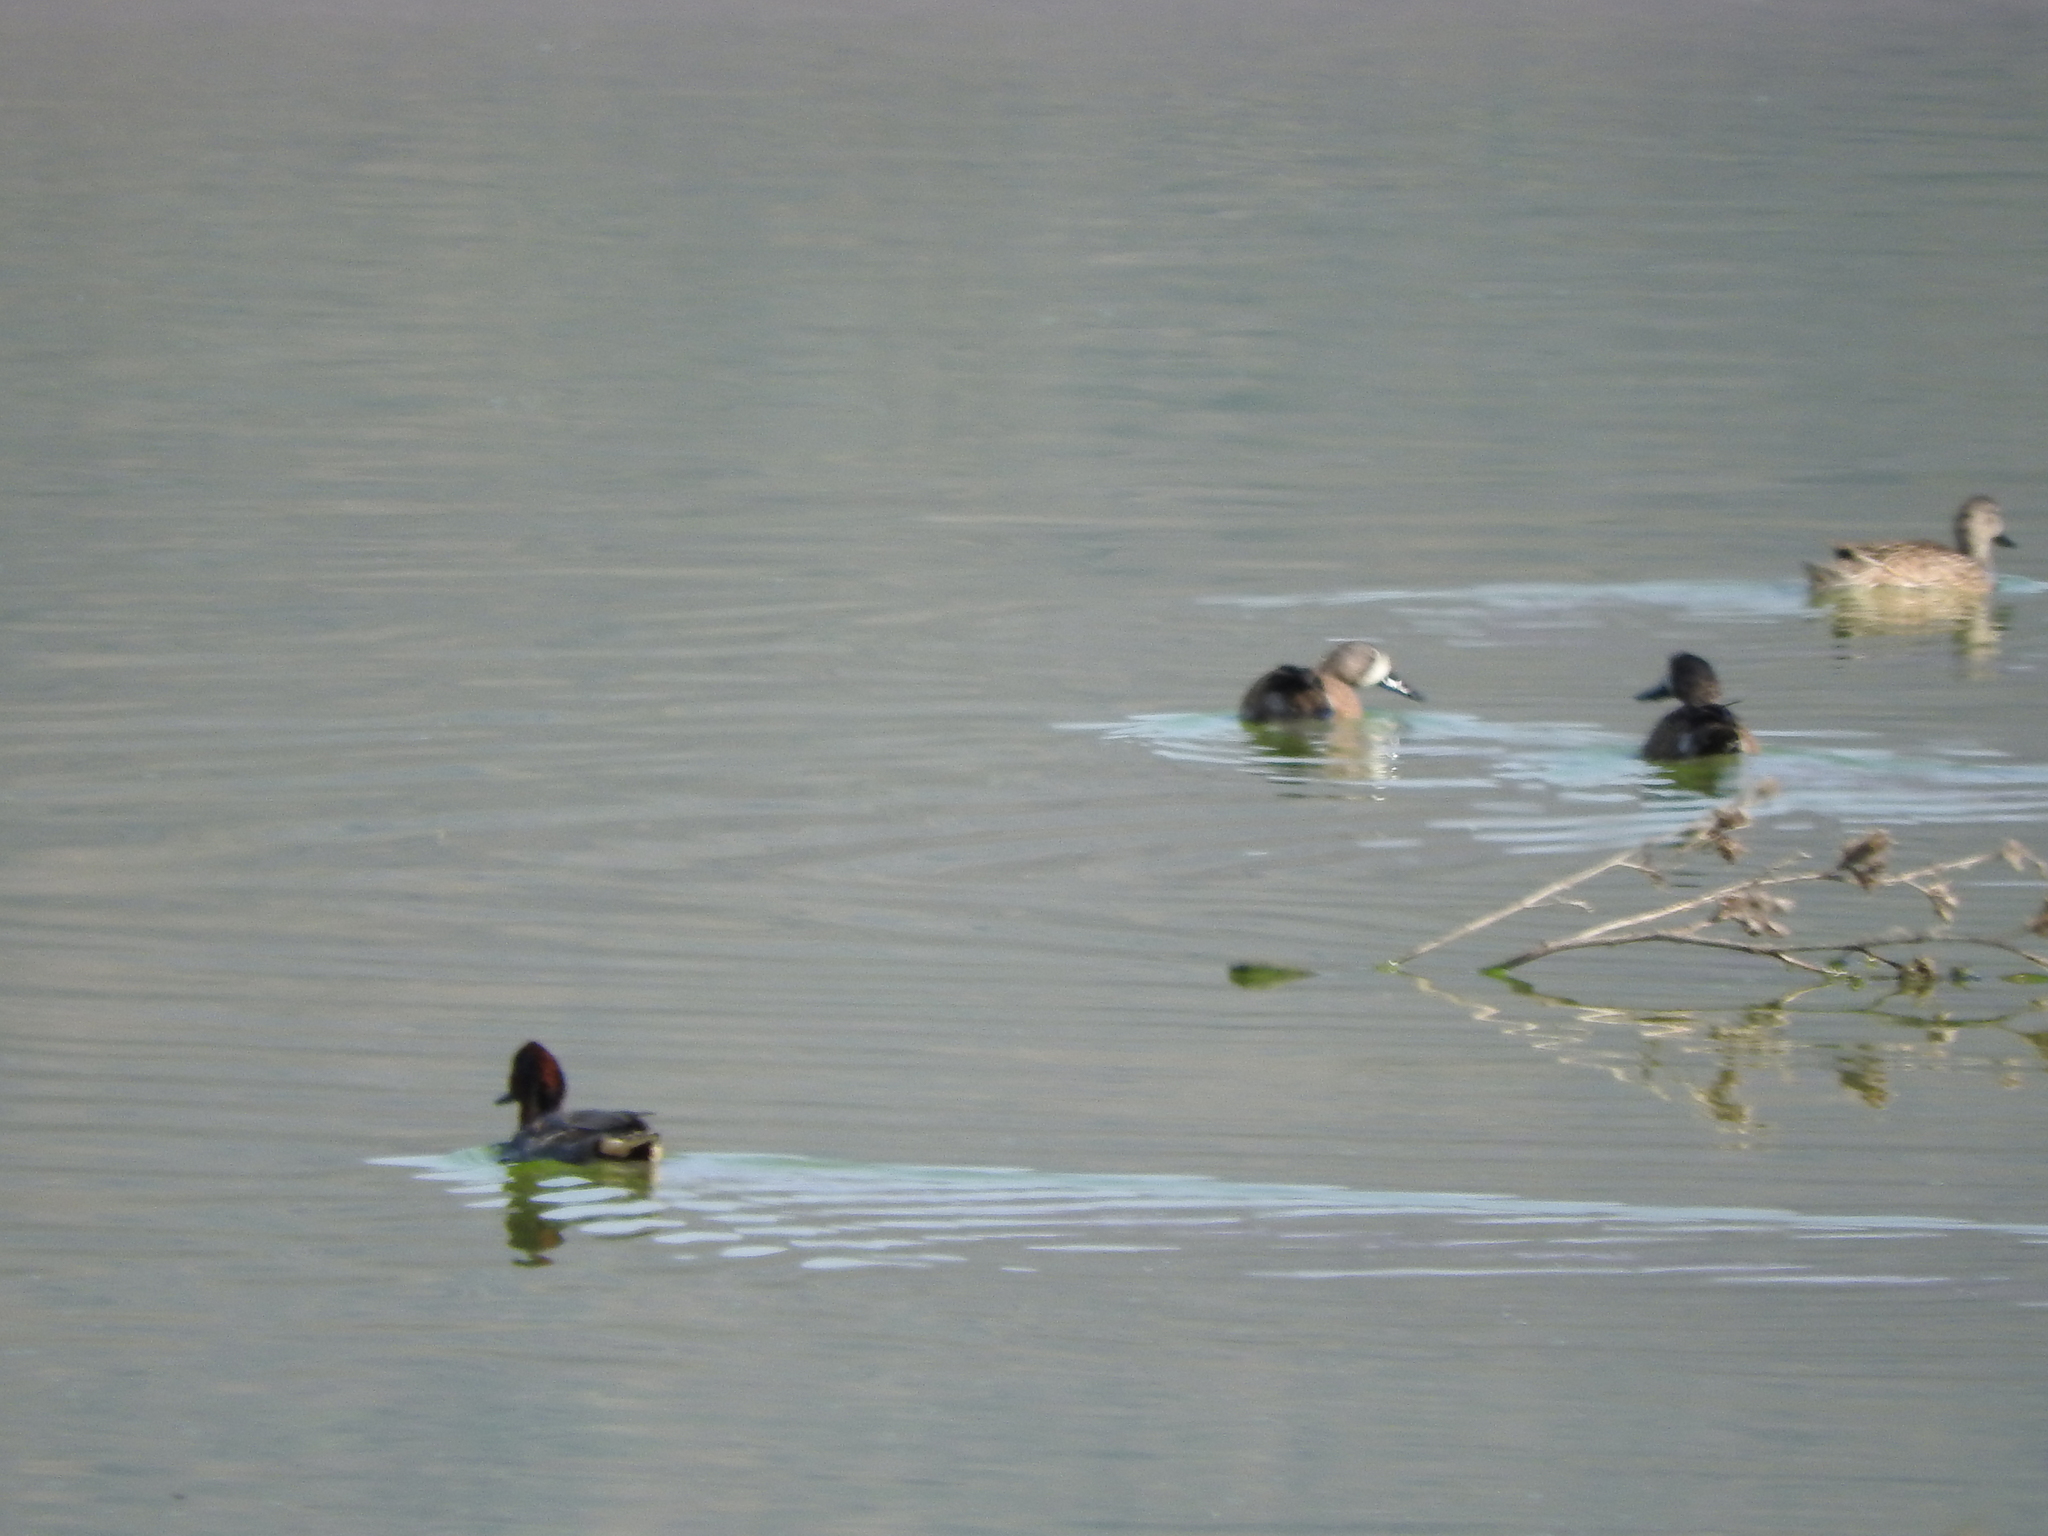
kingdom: Animalia
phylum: Chordata
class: Aves
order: Anseriformes
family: Anatidae
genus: Spatula
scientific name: Spatula discors
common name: Blue-winged teal
